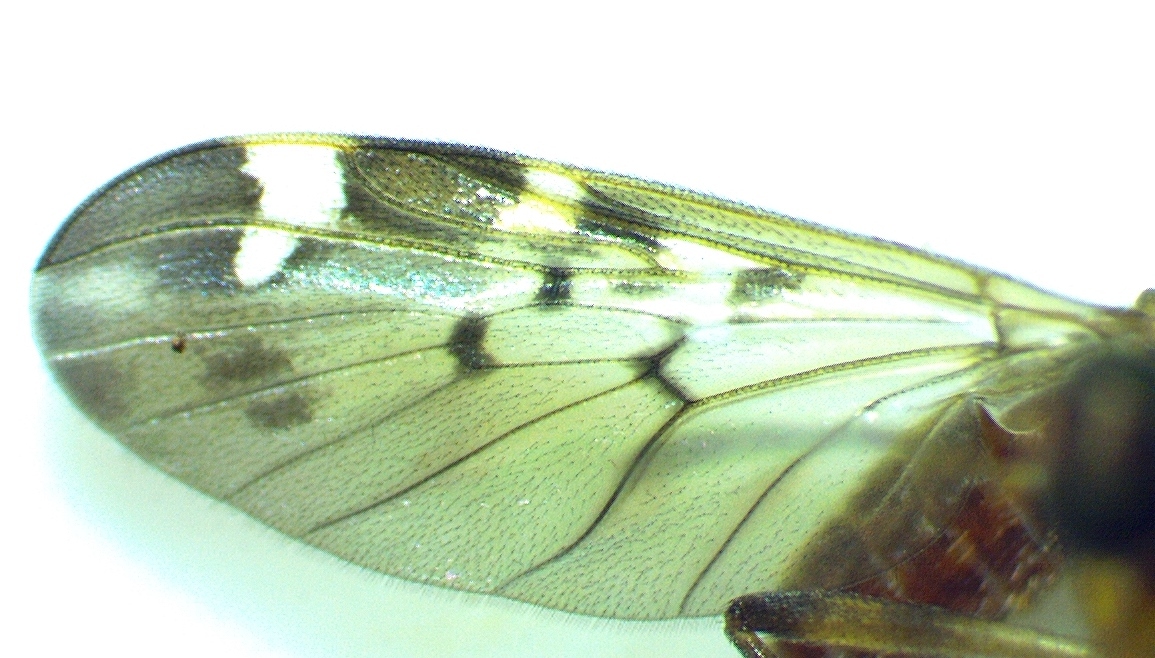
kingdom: Animalia
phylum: Arthropoda
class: Insecta
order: Diptera
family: Anisopodidae
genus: Sylvicola
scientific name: Sylvicola alternata
